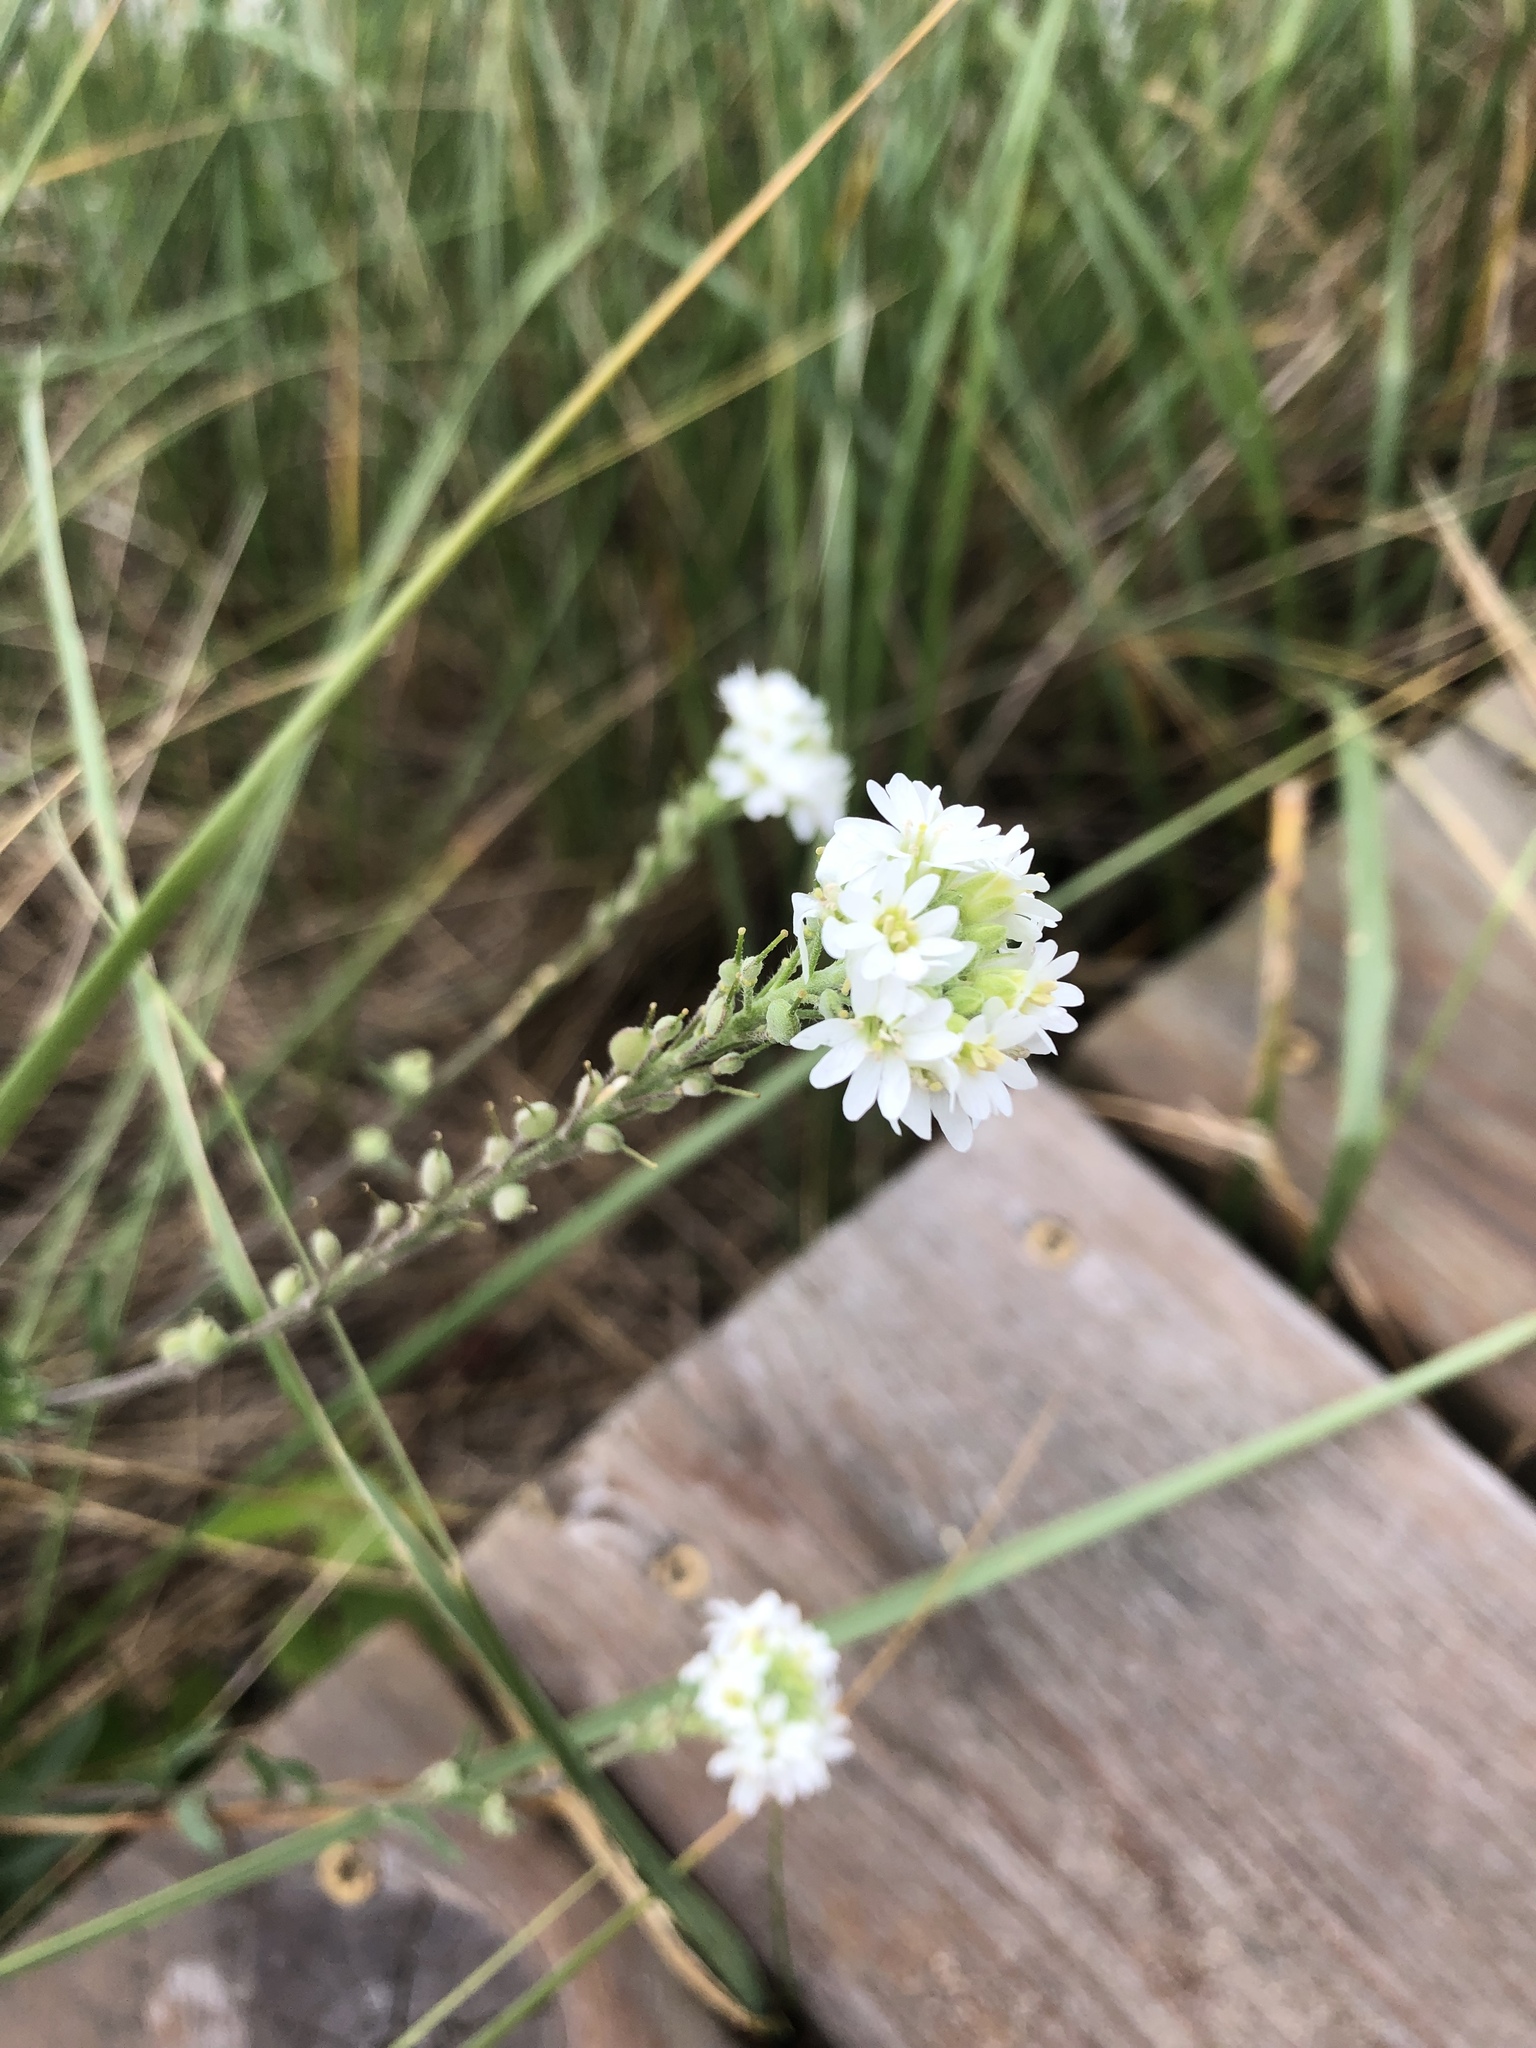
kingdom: Plantae
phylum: Tracheophyta
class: Magnoliopsida
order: Brassicales
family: Brassicaceae
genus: Berteroa
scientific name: Berteroa incana
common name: Hoary alison
